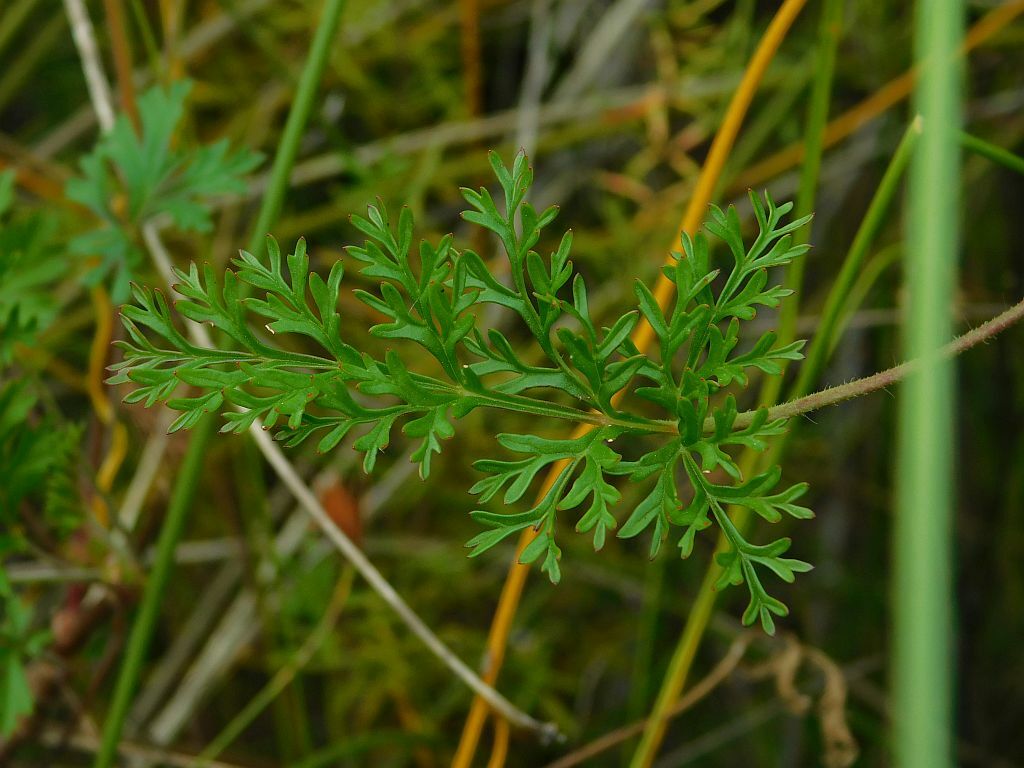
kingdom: Plantae
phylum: Tracheophyta
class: Magnoliopsida
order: Geraniales
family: Geraniaceae
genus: Pelargonium
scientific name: Pelargonium longicaule
